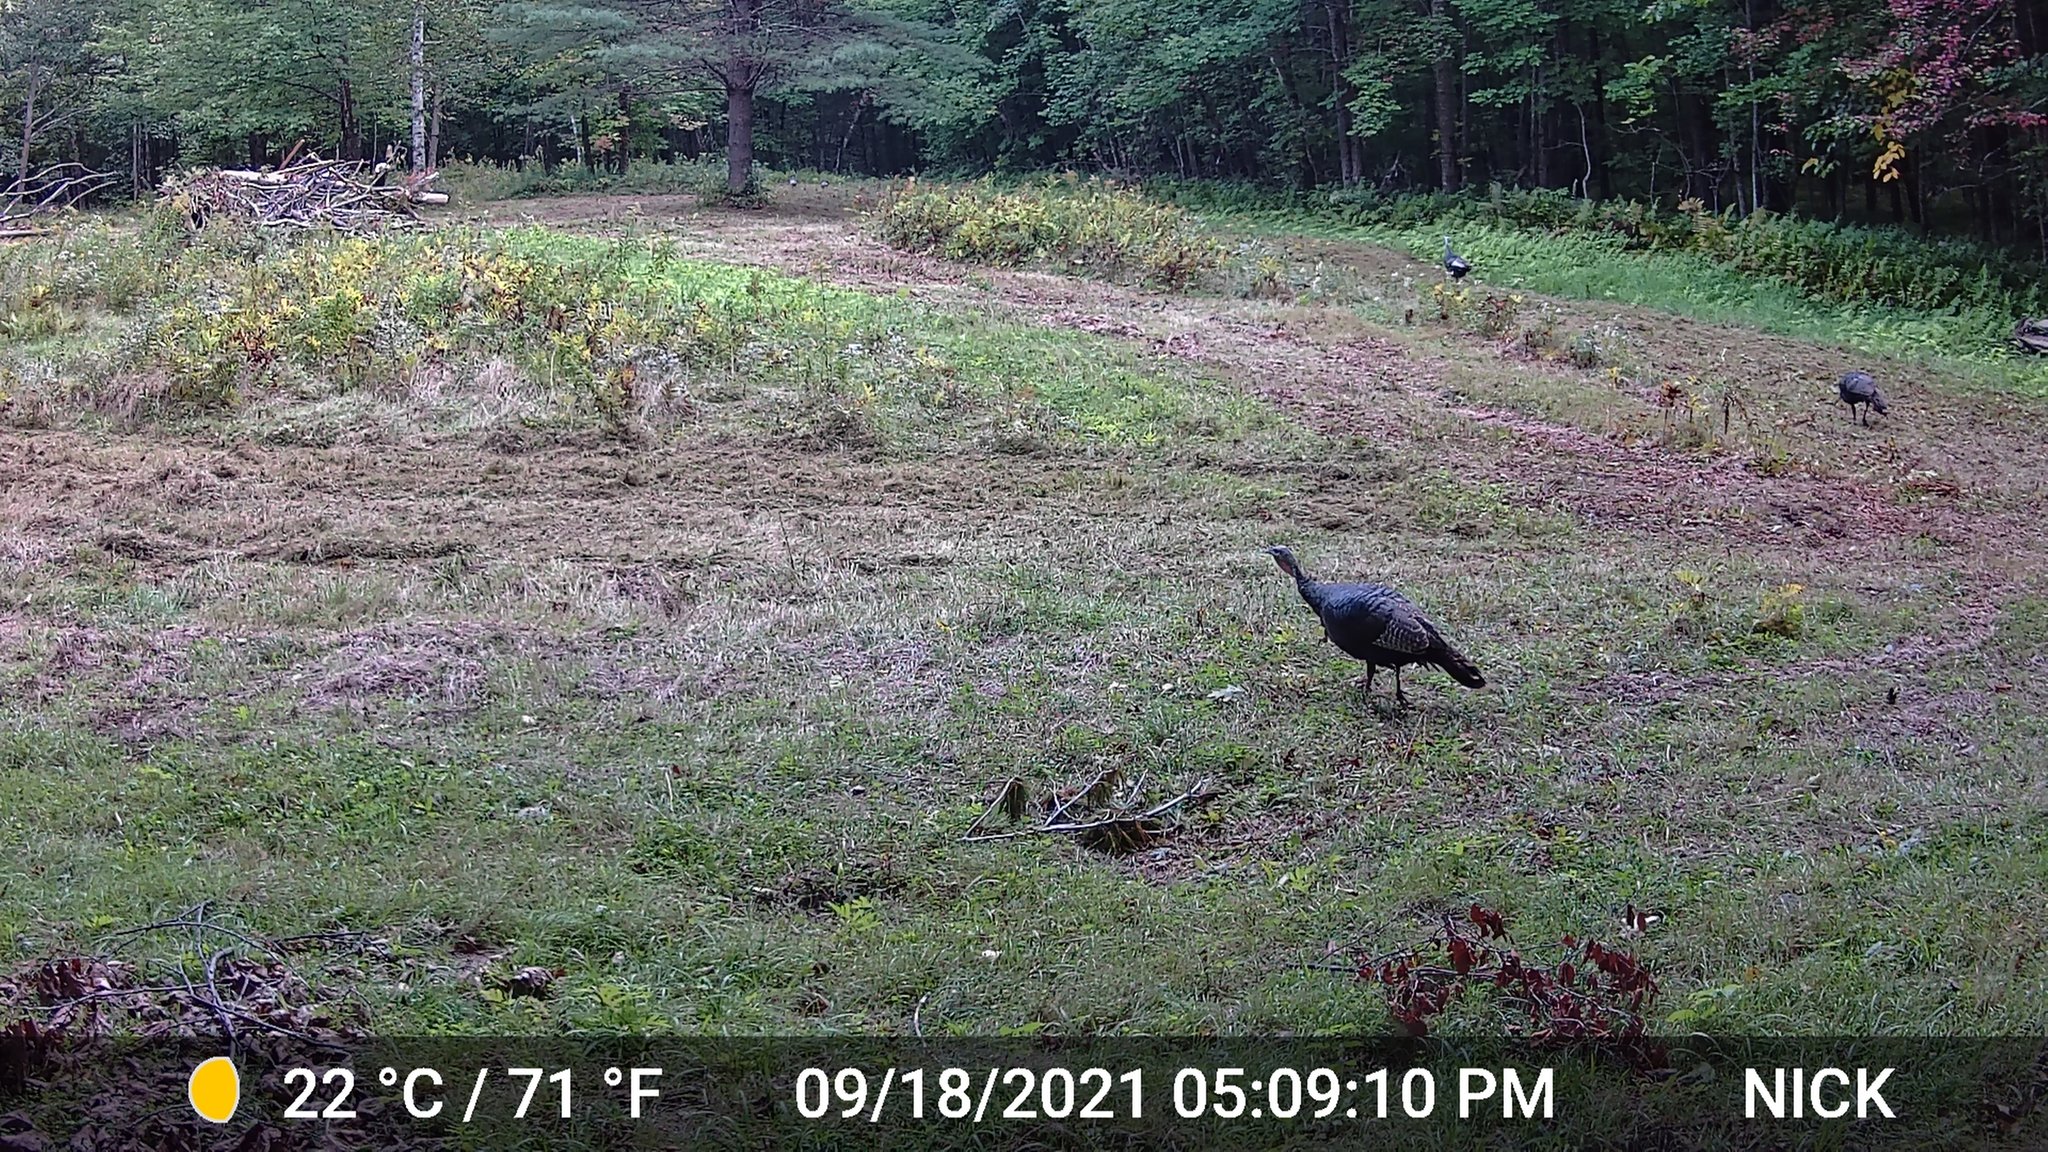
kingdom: Animalia
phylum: Chordata
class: Aves
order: Galliformes
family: Phasianidae
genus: Meleagris
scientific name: Meleagris gallopavo
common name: Wild turkey
